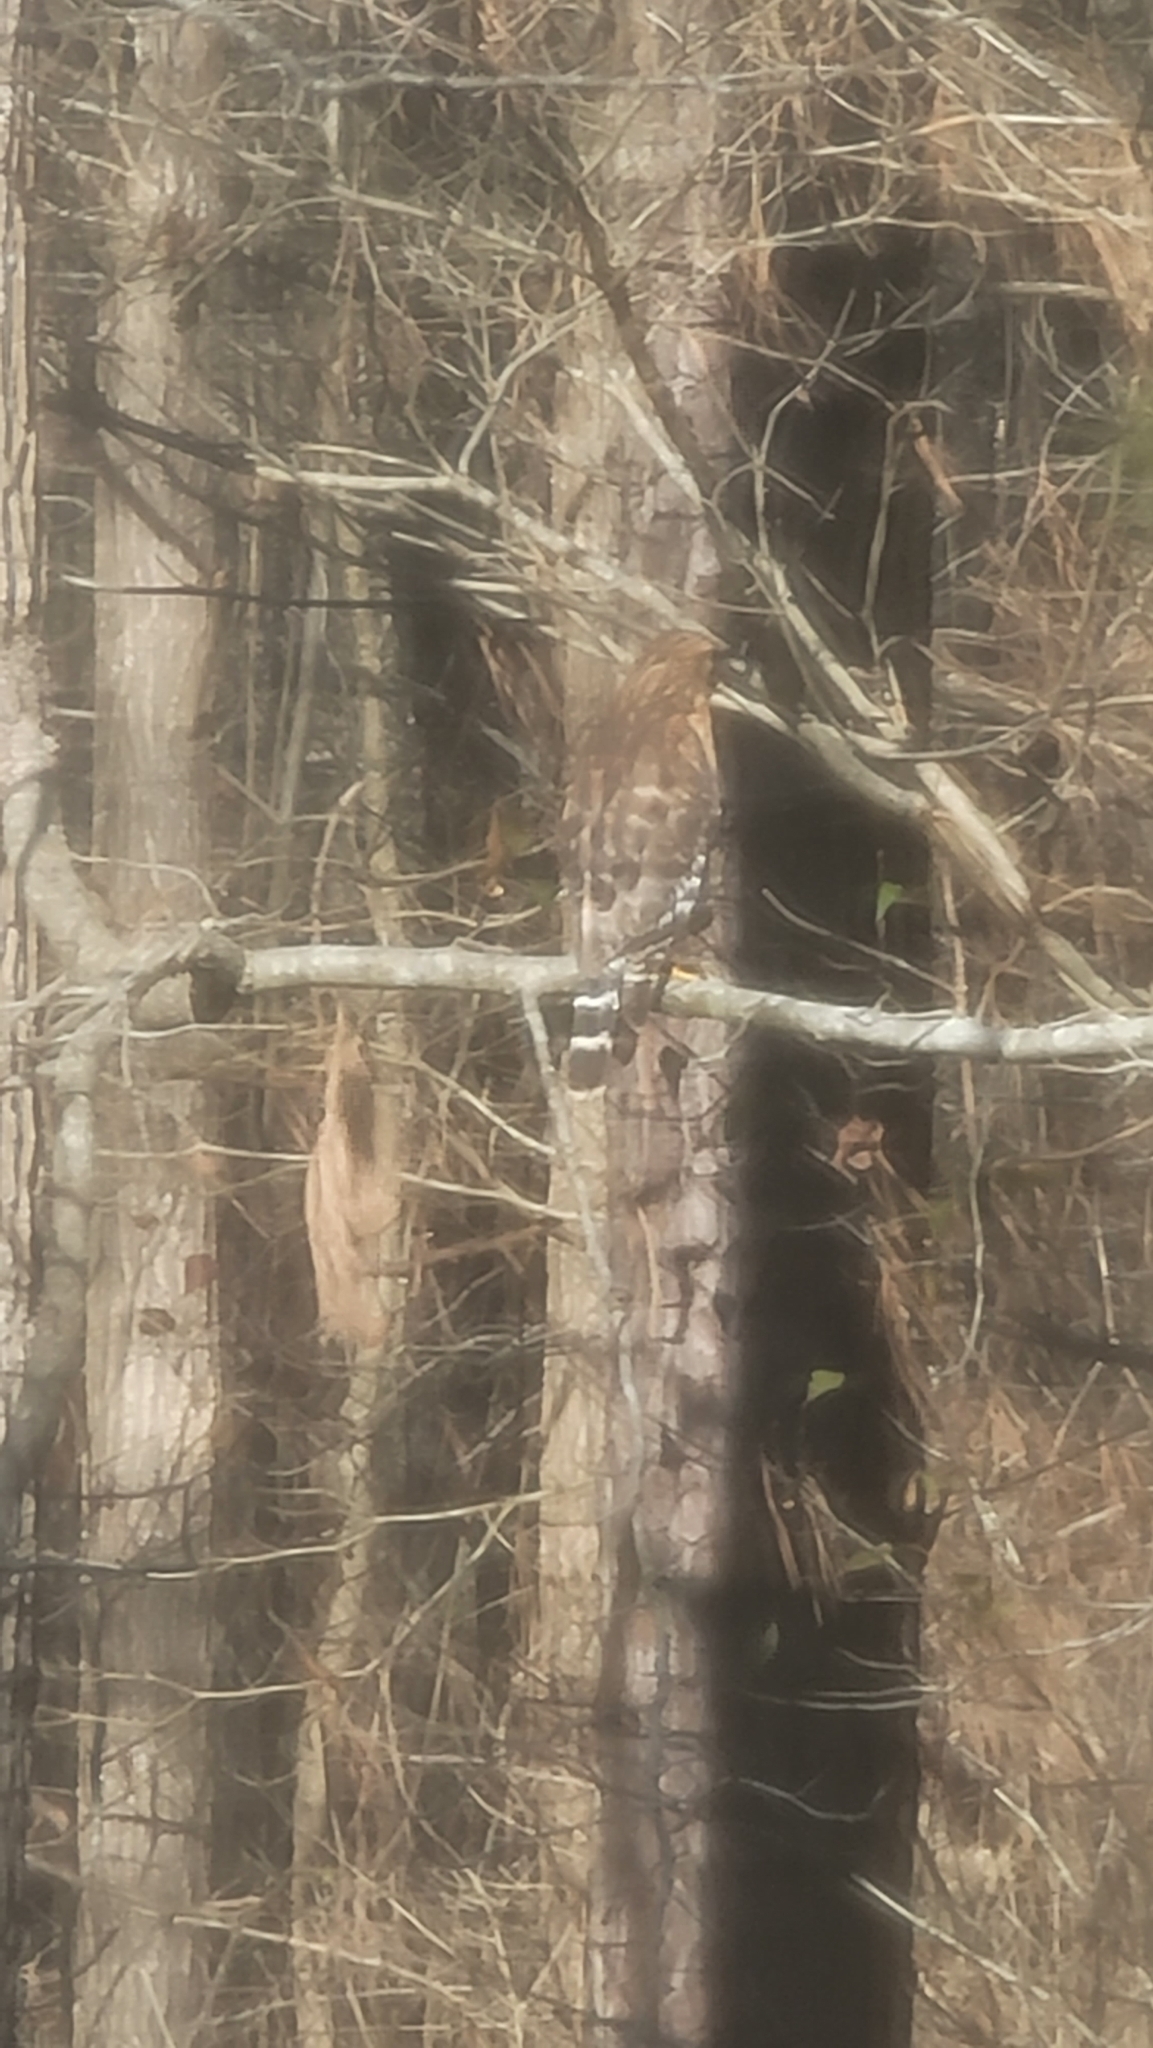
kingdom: Animalia
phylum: Chordata
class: Aves
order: Accipitriformes
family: Accipitridae
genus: Buteo
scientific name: Buteo lineatus
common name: Red-shouldered hawk
